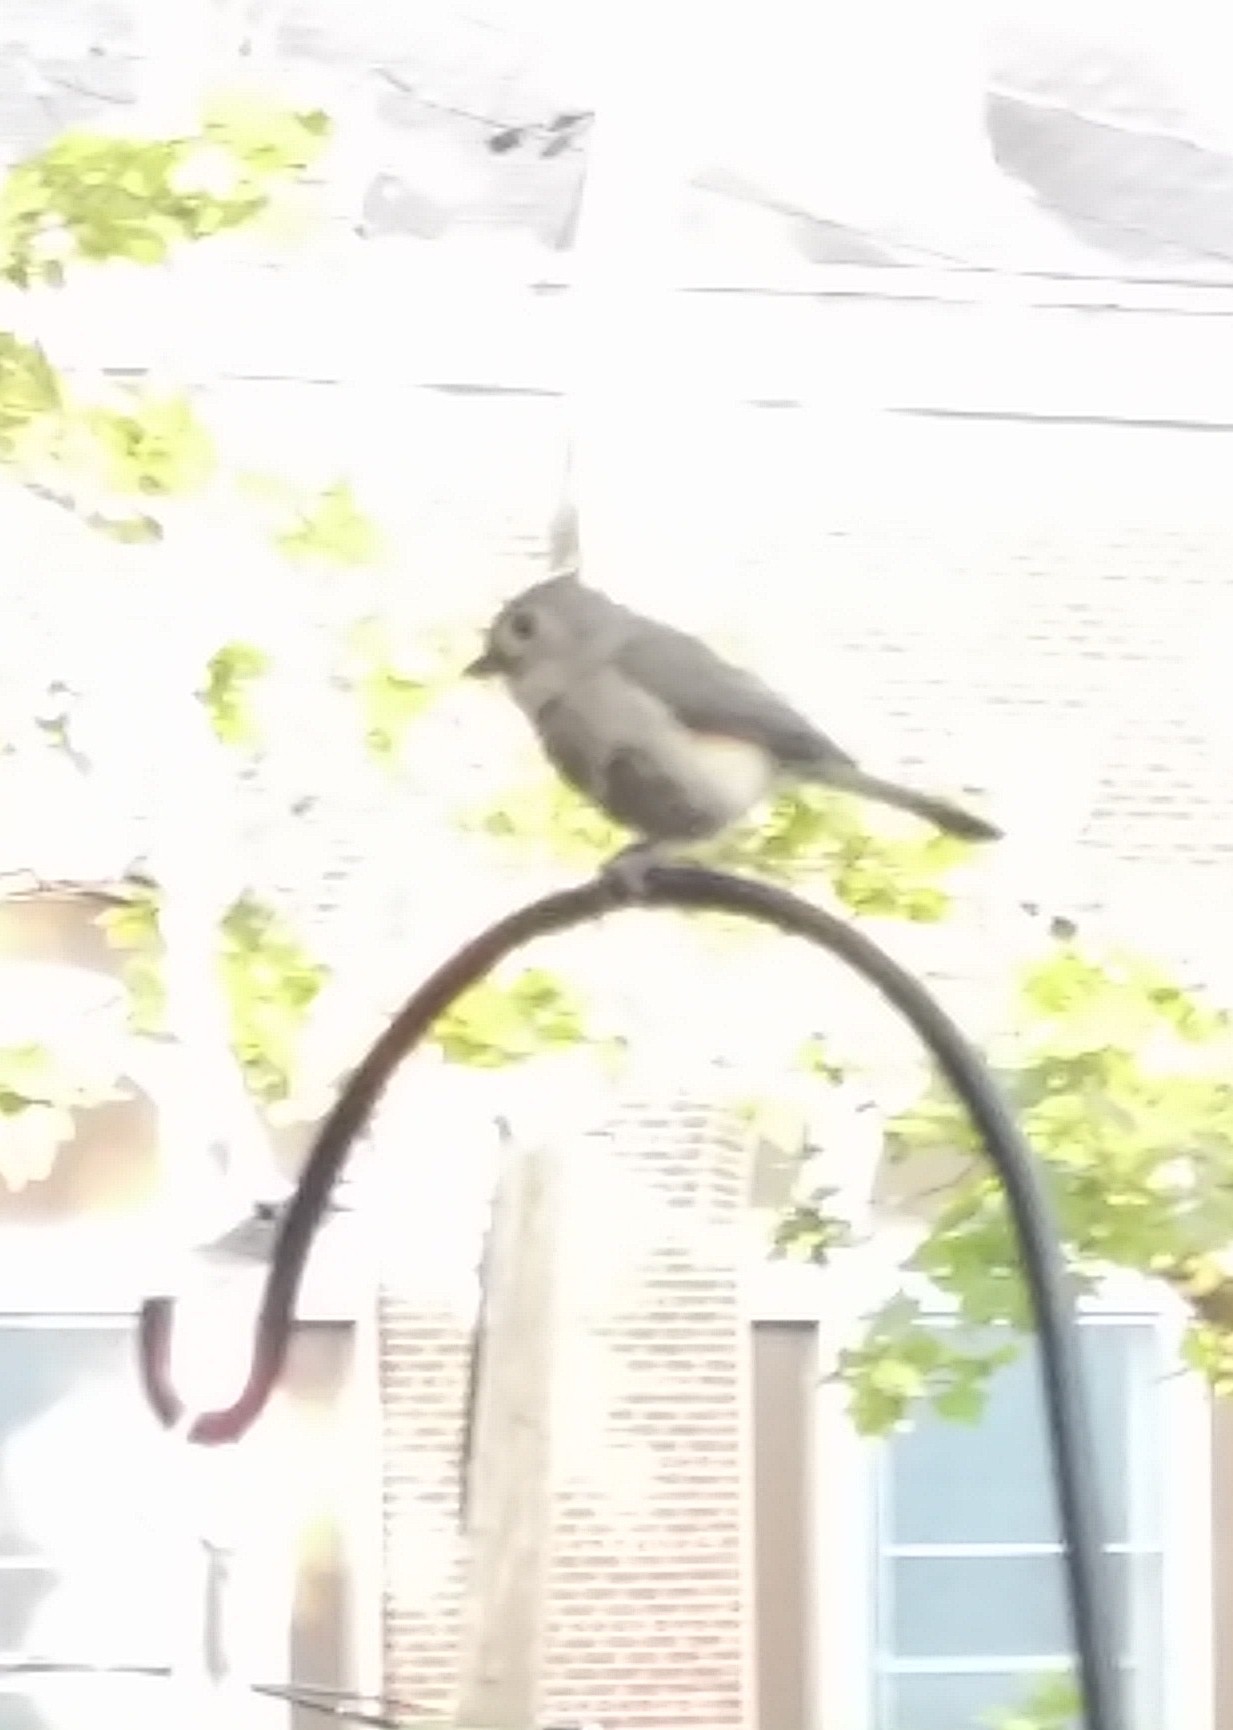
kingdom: Animalia
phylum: Chordata
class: Aves
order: Passeriformes
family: Paridae
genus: Baeolophus
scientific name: Baeolophus bicolor
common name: Tufted titmouse
